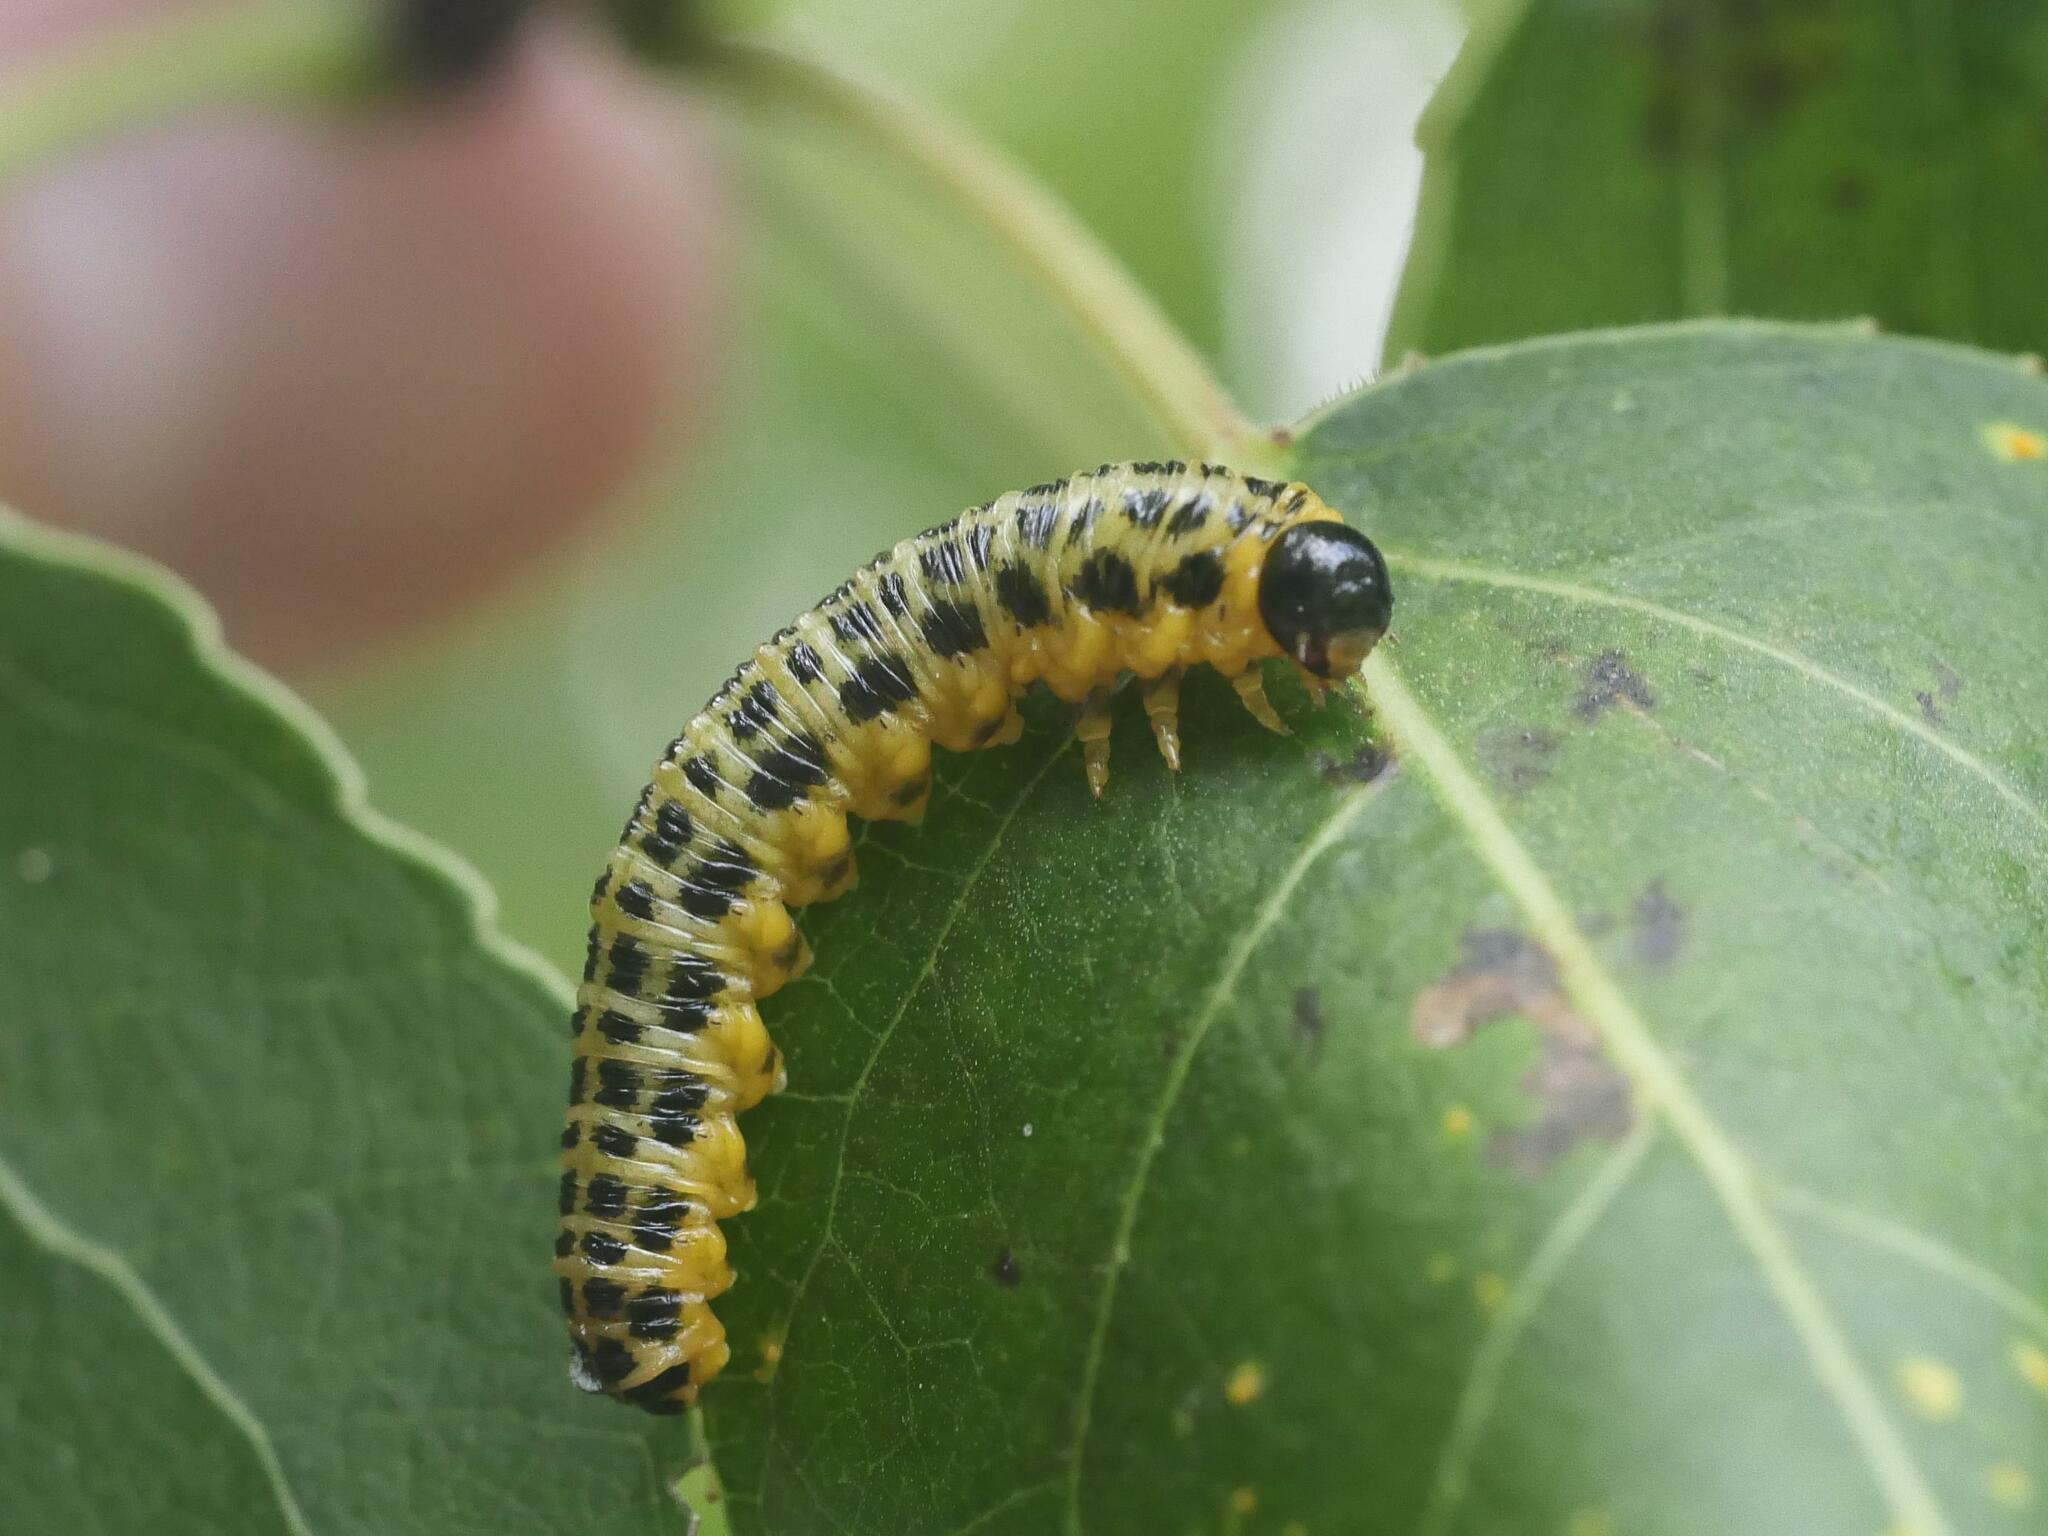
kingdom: Animalia
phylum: Arthropoda
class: Insecta
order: Hymenoptera
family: Tenthredinidae
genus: Macremphytus
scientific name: Macremphytus testaceus
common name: Dogwood sawfly
